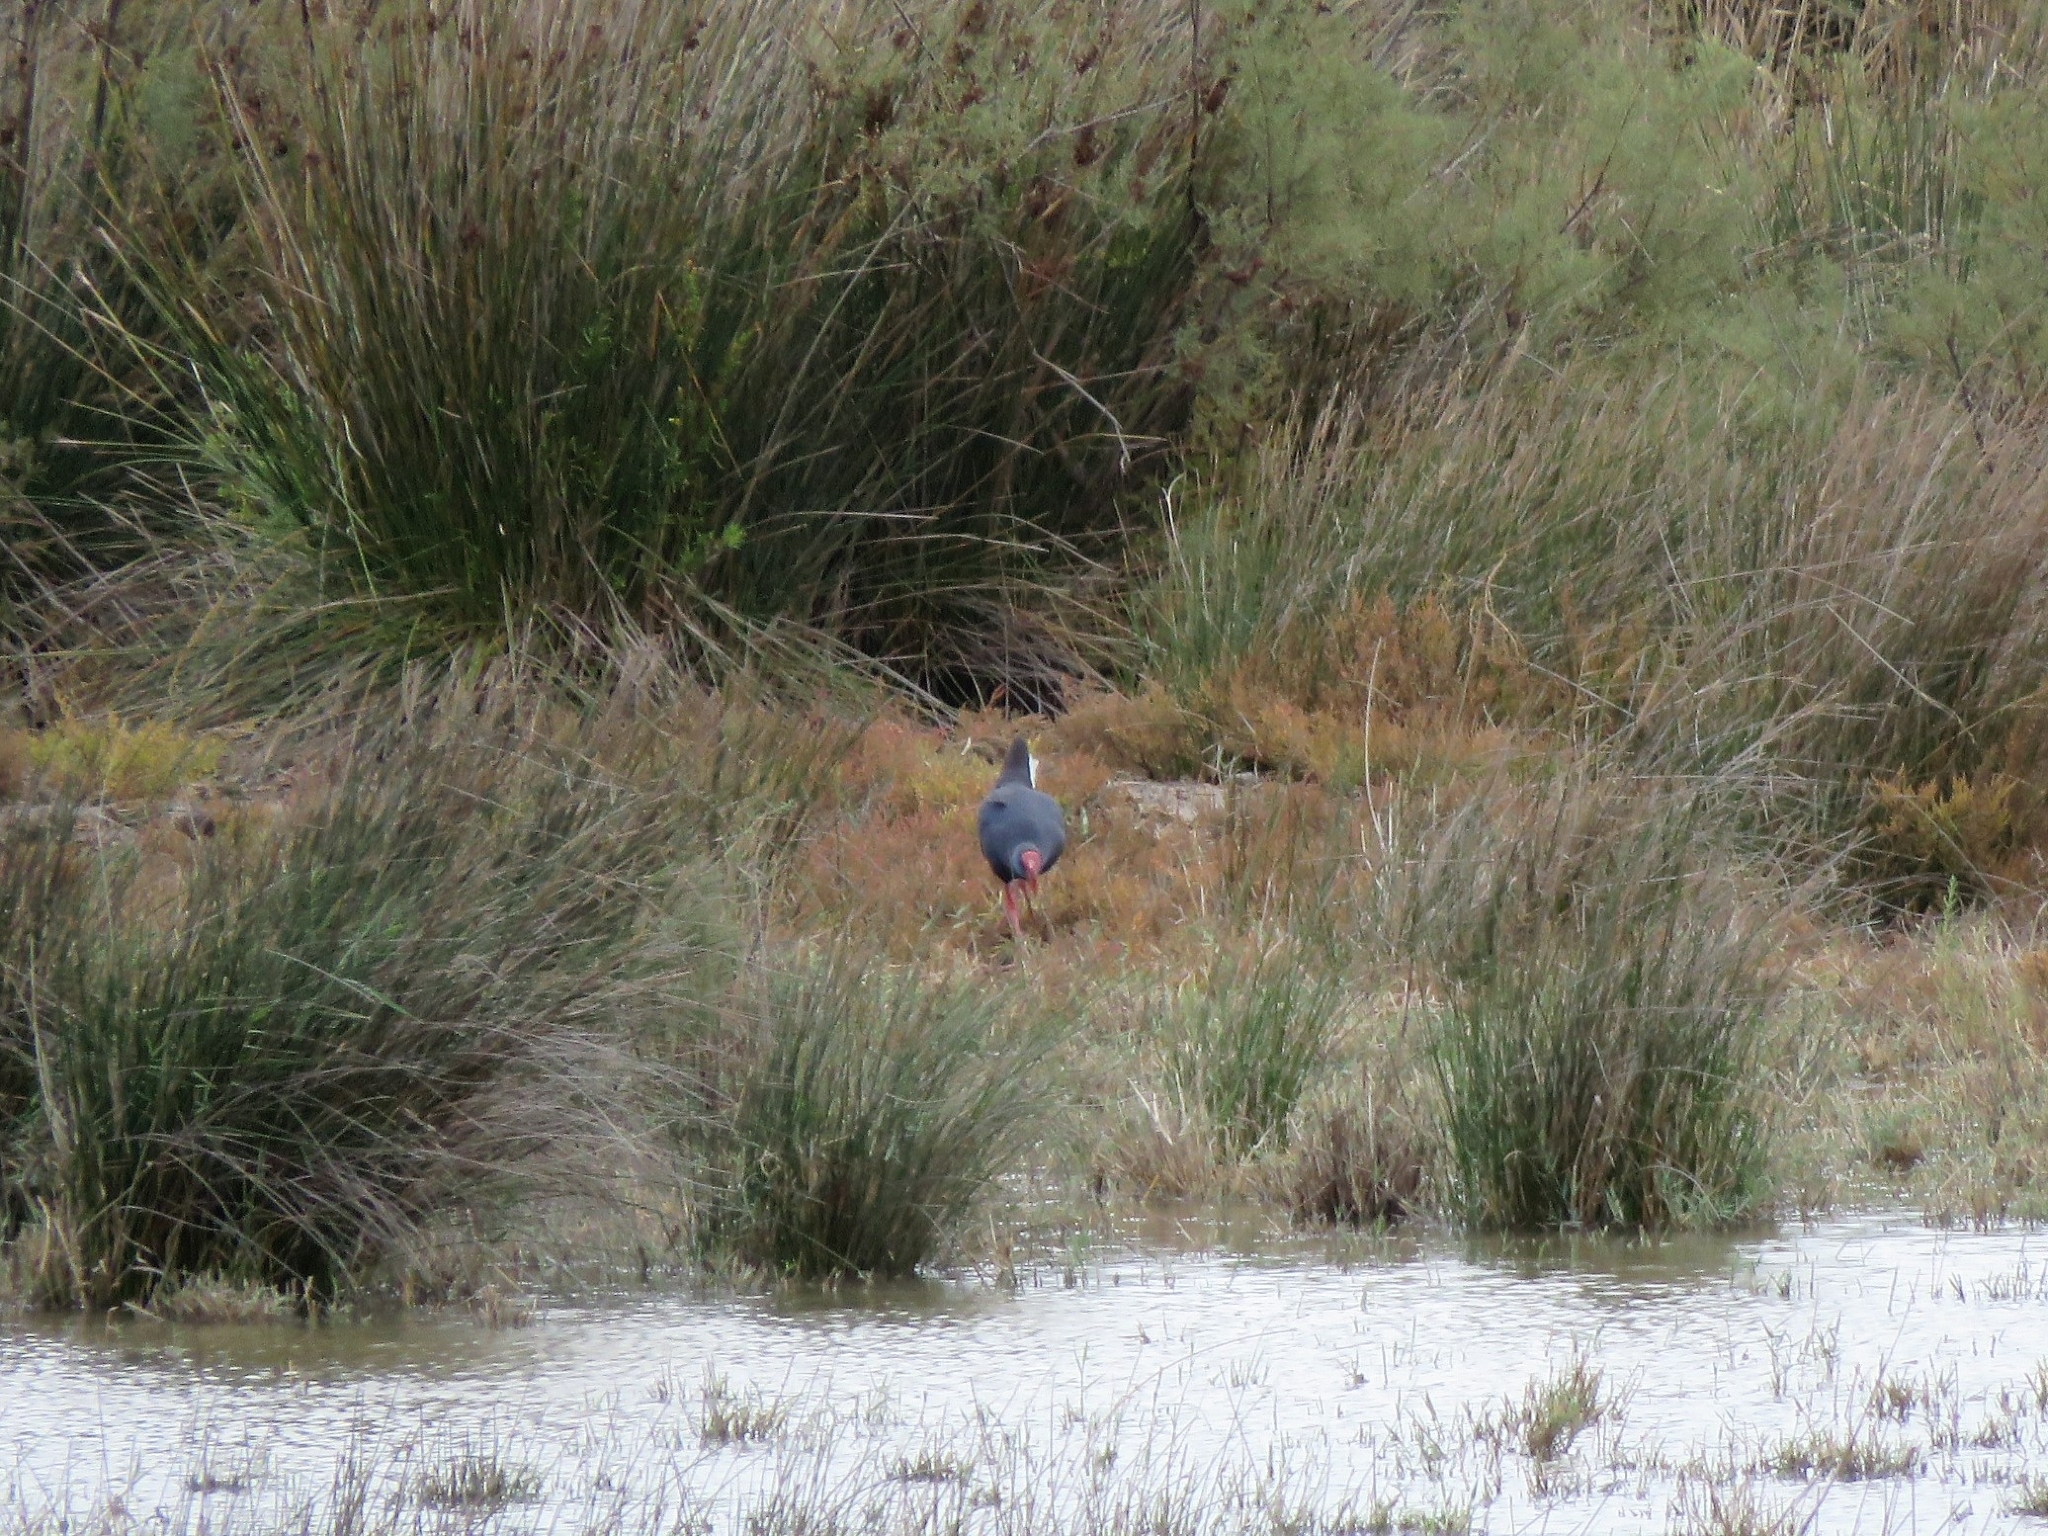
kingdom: Animalia
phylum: Chordata
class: Aves
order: Gruiformes
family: Rallidae
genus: Porphyrio
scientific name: Porphyrio porphyrio
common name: Purple swamphen
